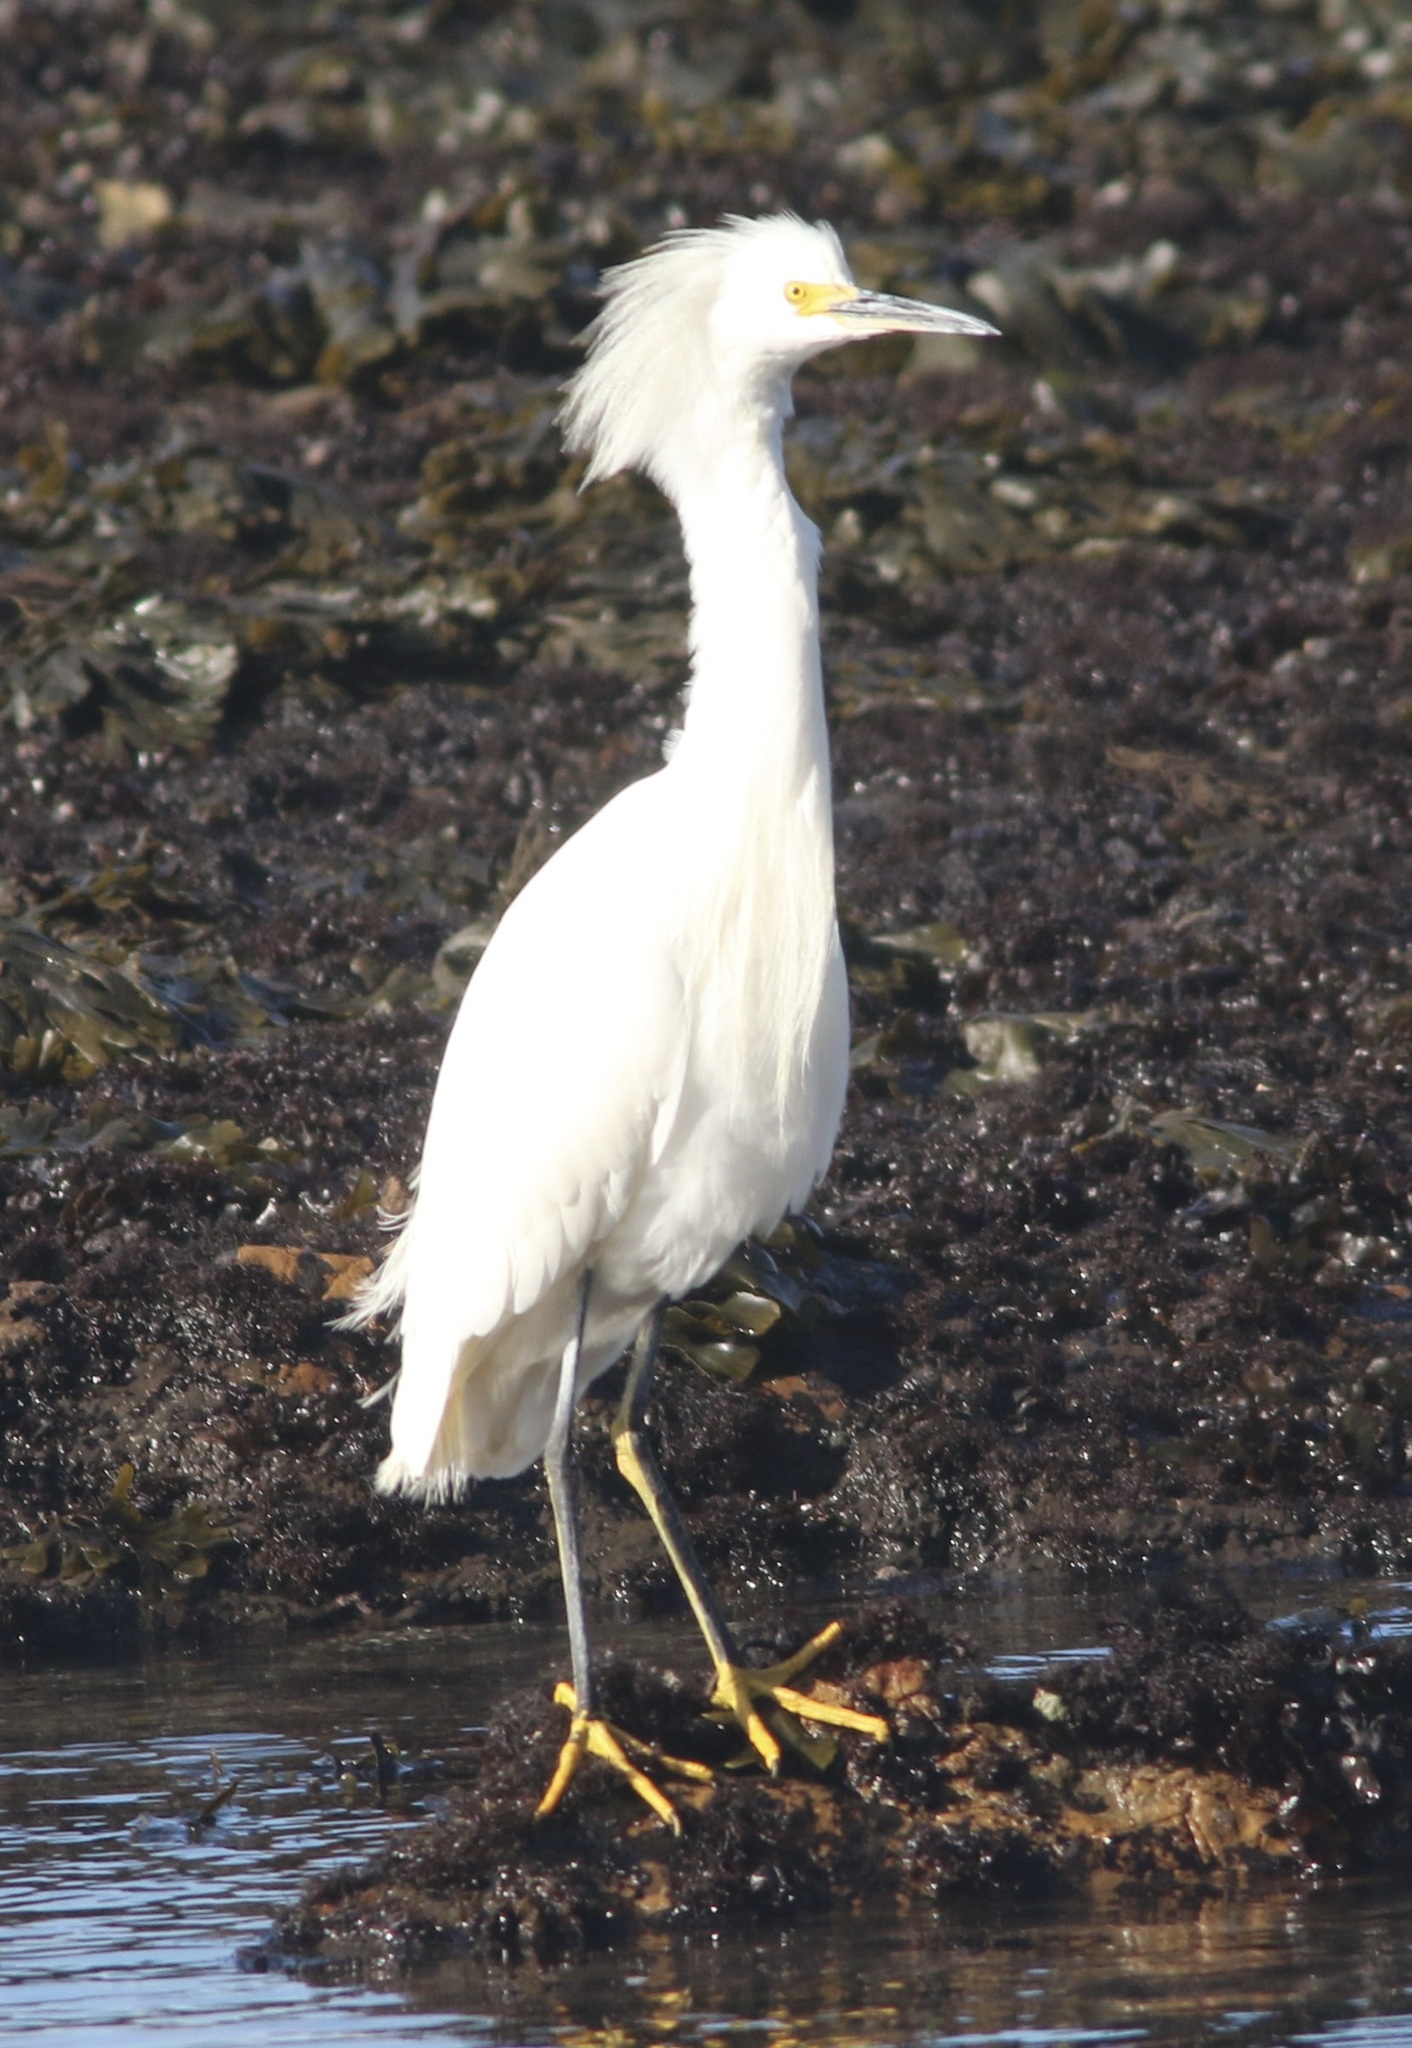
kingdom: Animalia
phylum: Chordata
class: Aves
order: Pelecaniformes
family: Ardeidae
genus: Egretta
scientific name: Egretta thula
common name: Snowy egret
